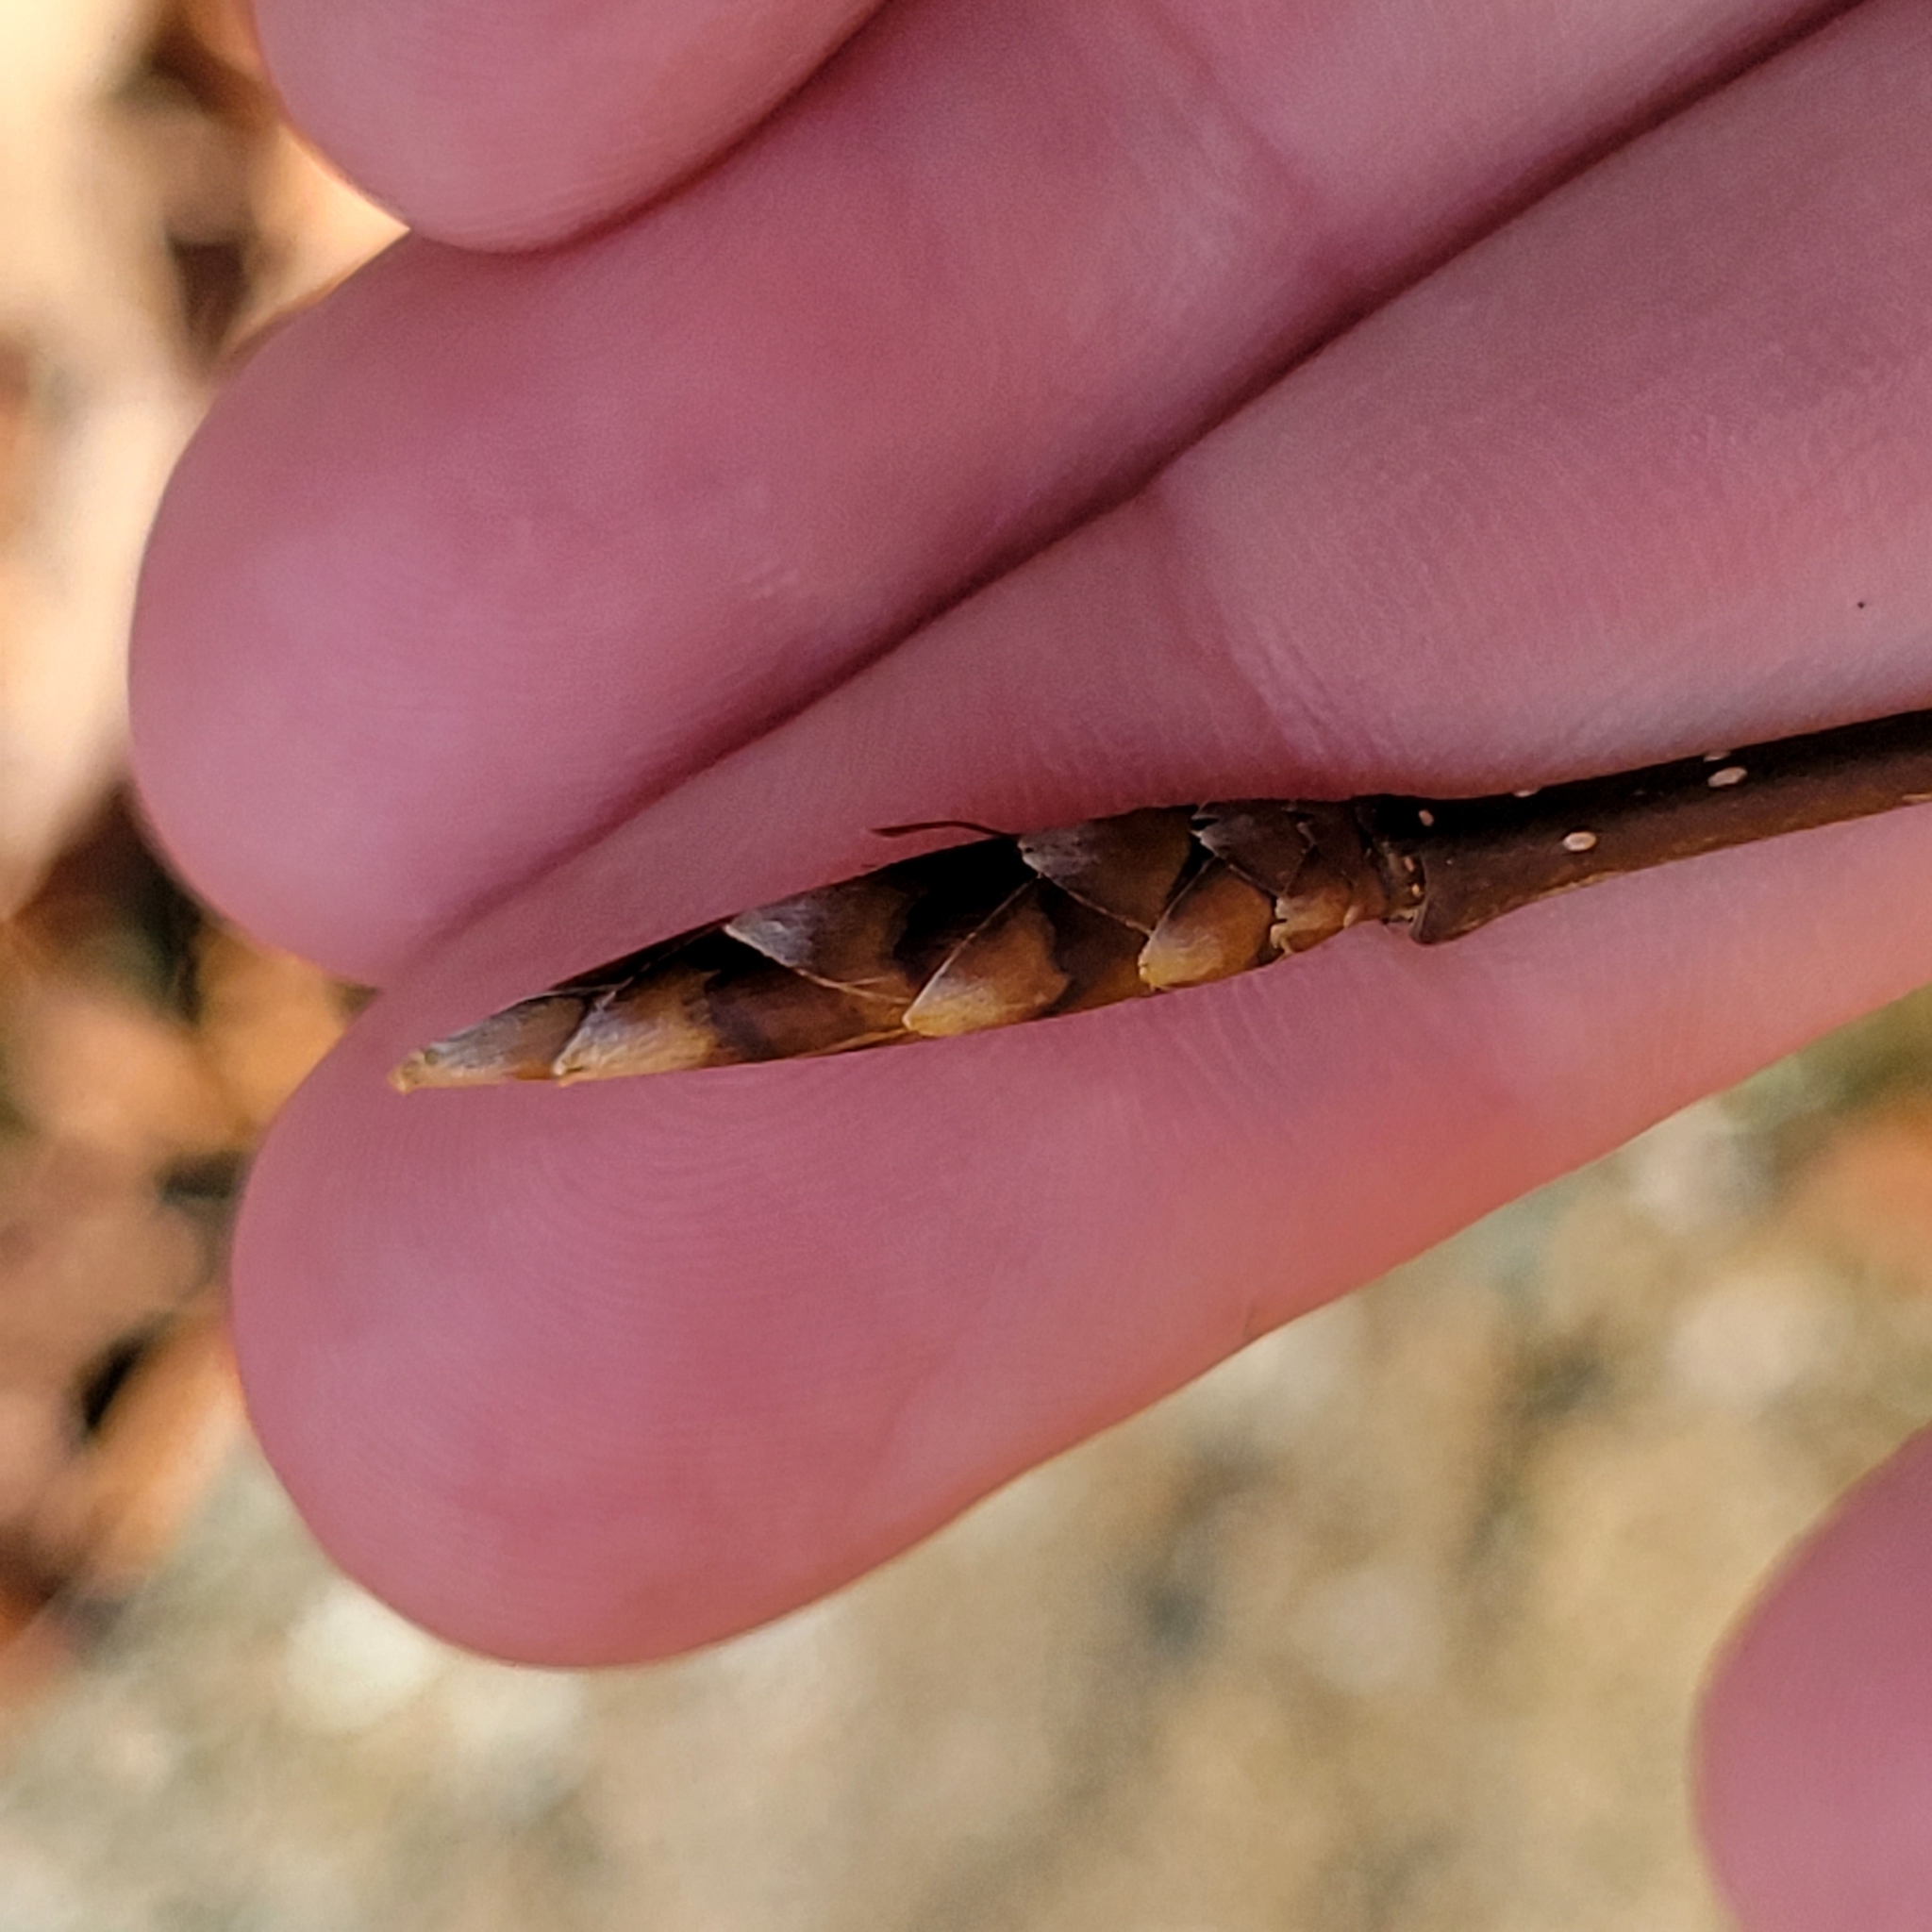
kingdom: Plantae
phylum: Tracheophyta
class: Magnoliopsida
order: Fagales
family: Fagaceae
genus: Fagus
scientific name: Fagus grandifolia
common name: American beech
